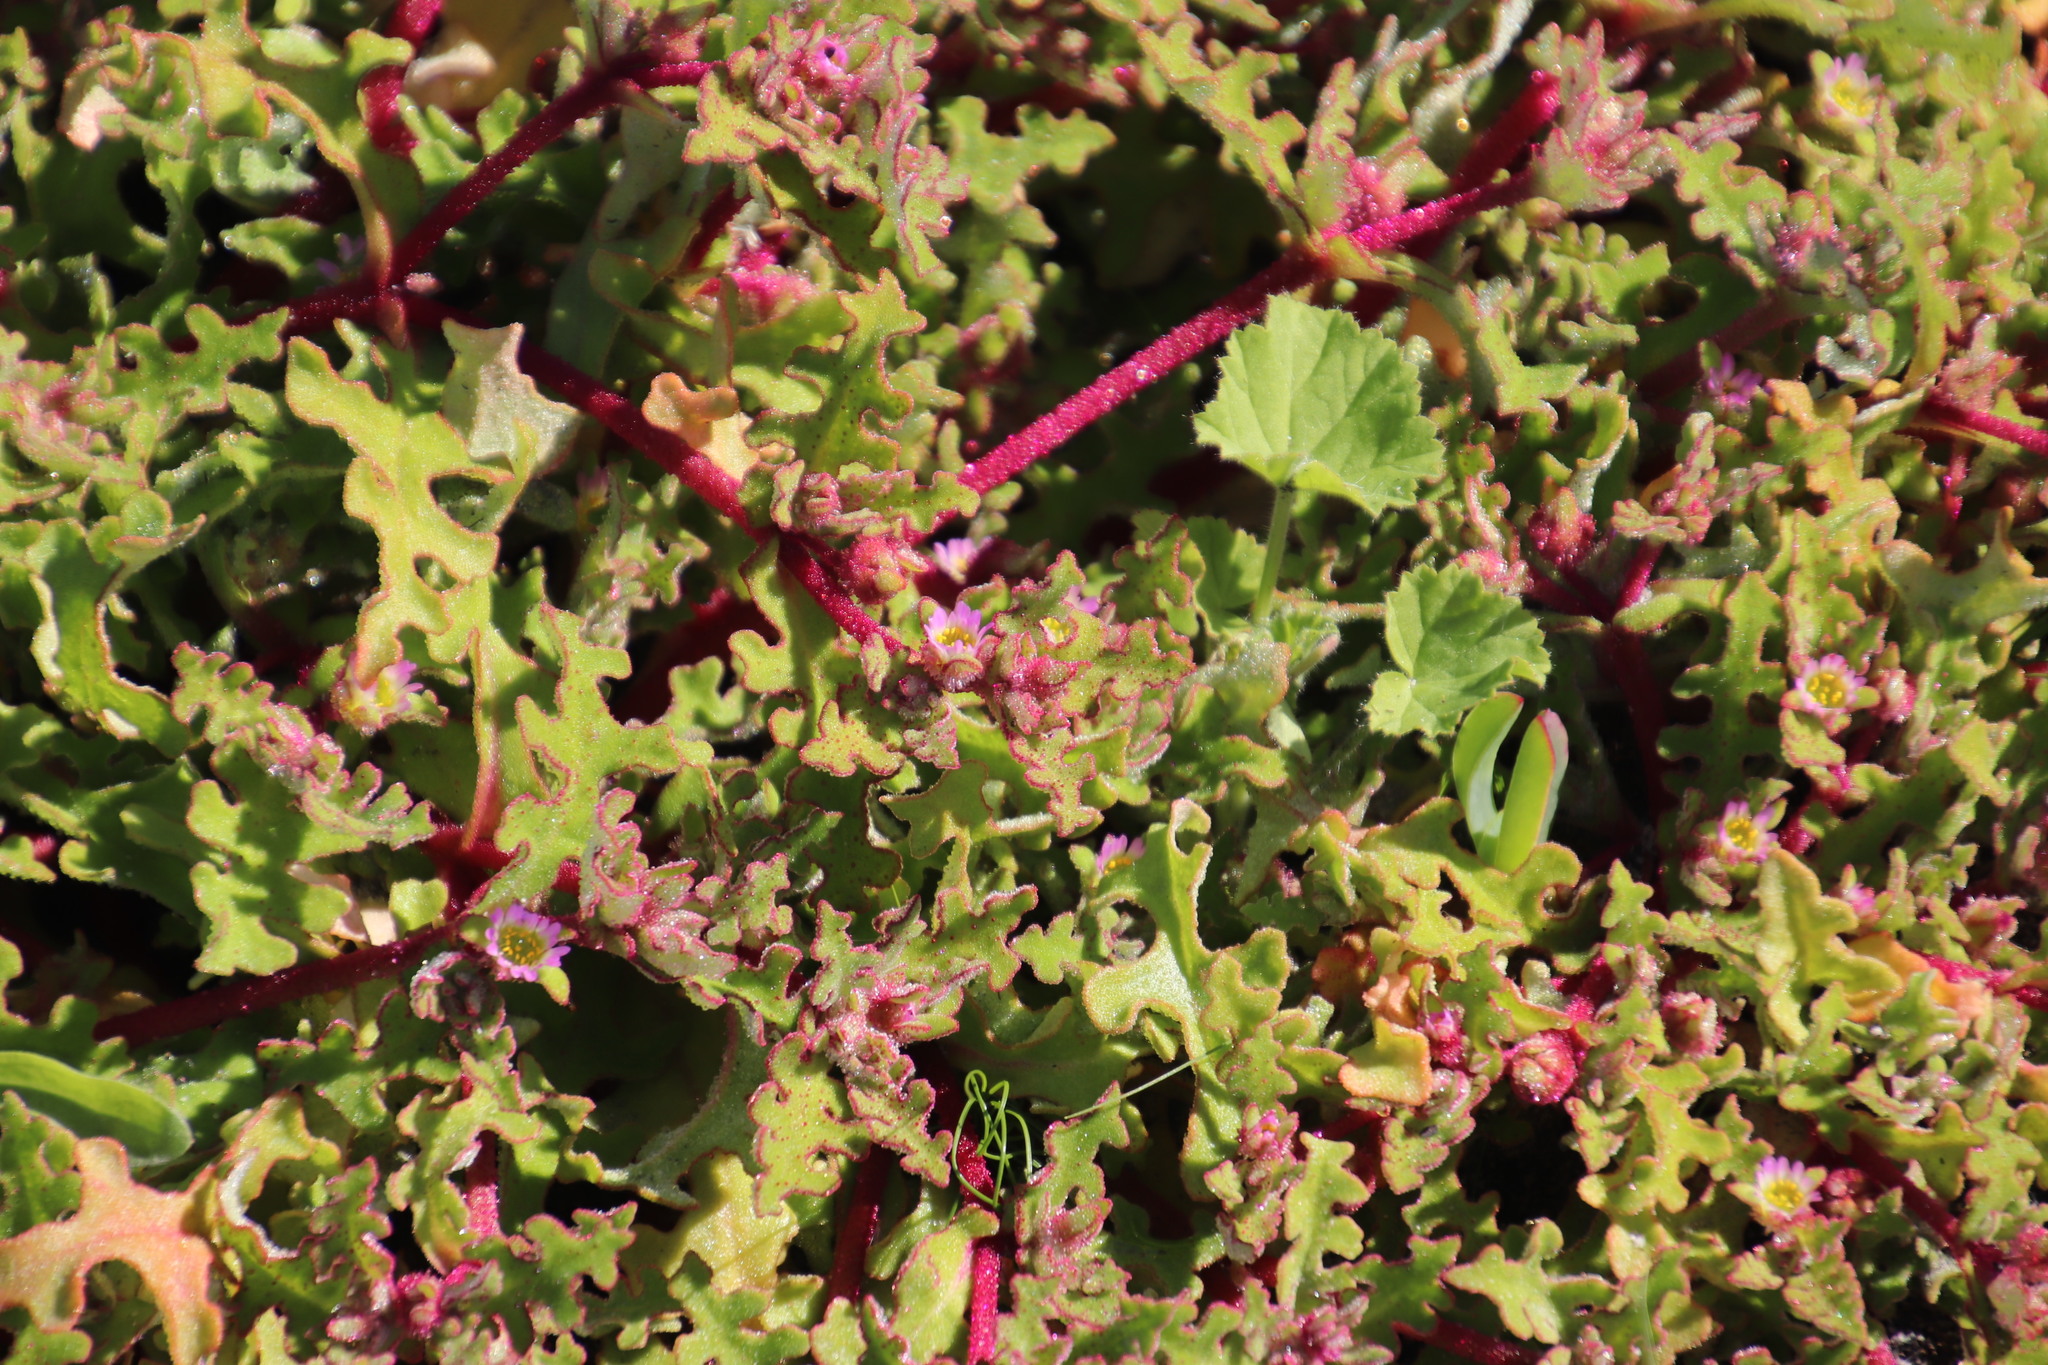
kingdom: Plantae
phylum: Tracheophyta
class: Magnoliopsida
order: Caryophyllales
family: Aizoaceae
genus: Cleretum
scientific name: Cleretum herrei
